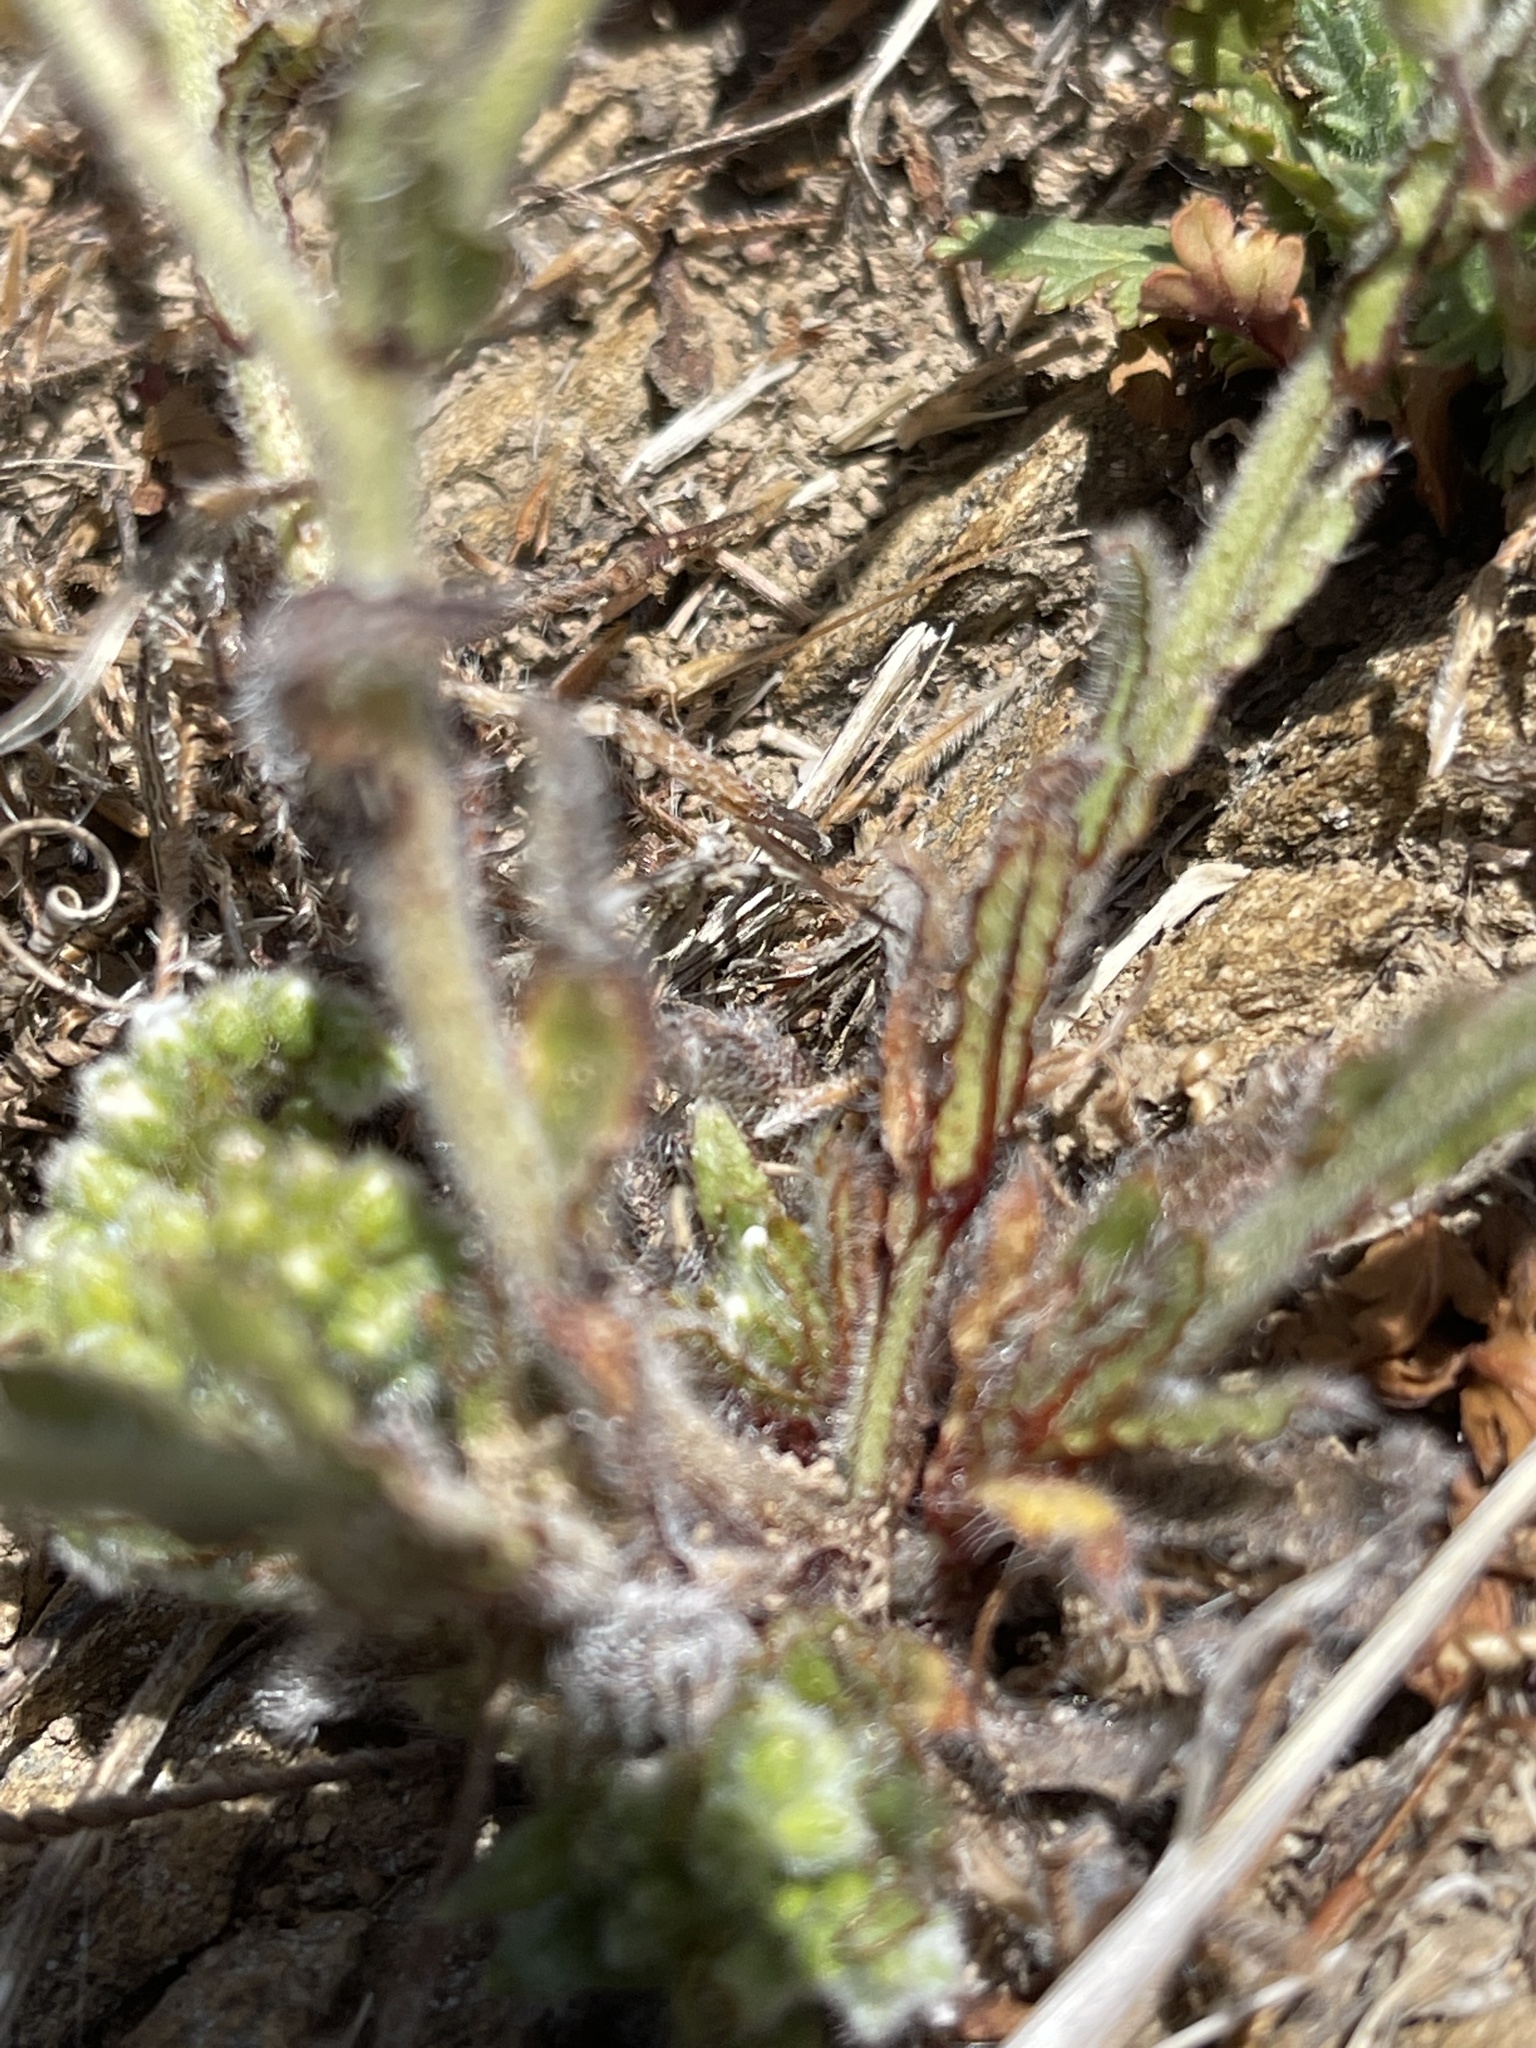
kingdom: Plantae
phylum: Tracheophyta
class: Magnoliopsida
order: Boraginales
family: Boraginaceae
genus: Plagiobothrys
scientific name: Plagiobothrys nothofulvus
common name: Popcorn-flower
